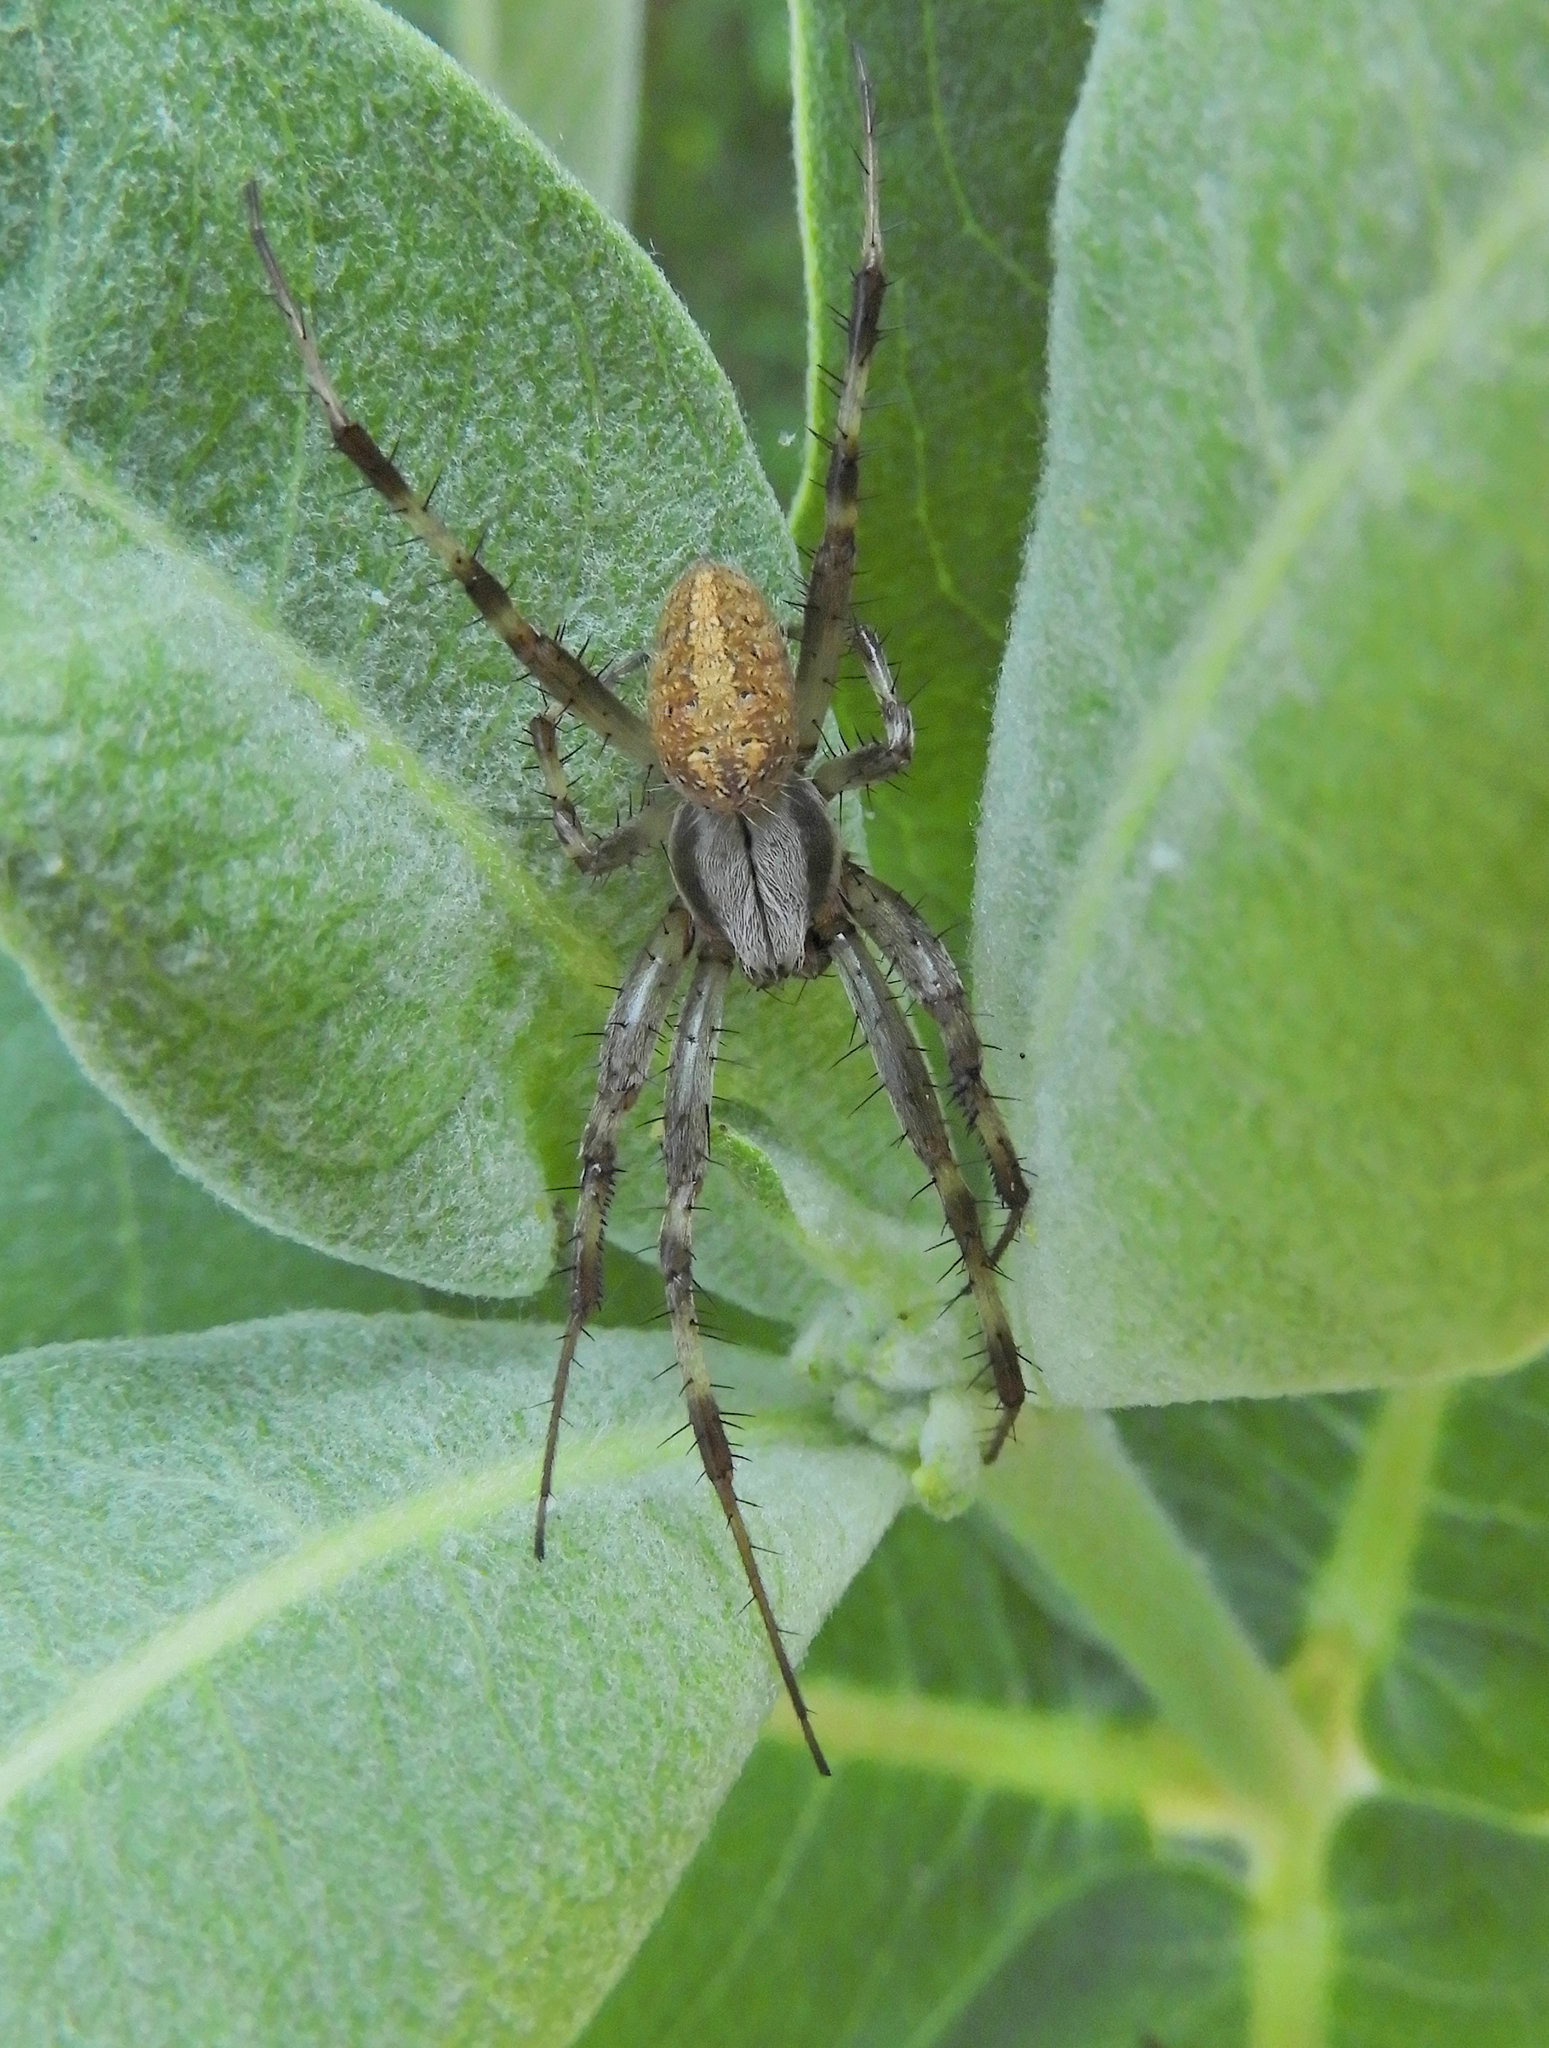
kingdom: Animalia
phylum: Arthropoda
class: Arachnida
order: Araneae
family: Araneidae
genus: Neoscona
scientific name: Neoscona oaxacensis
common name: Orb weavers
